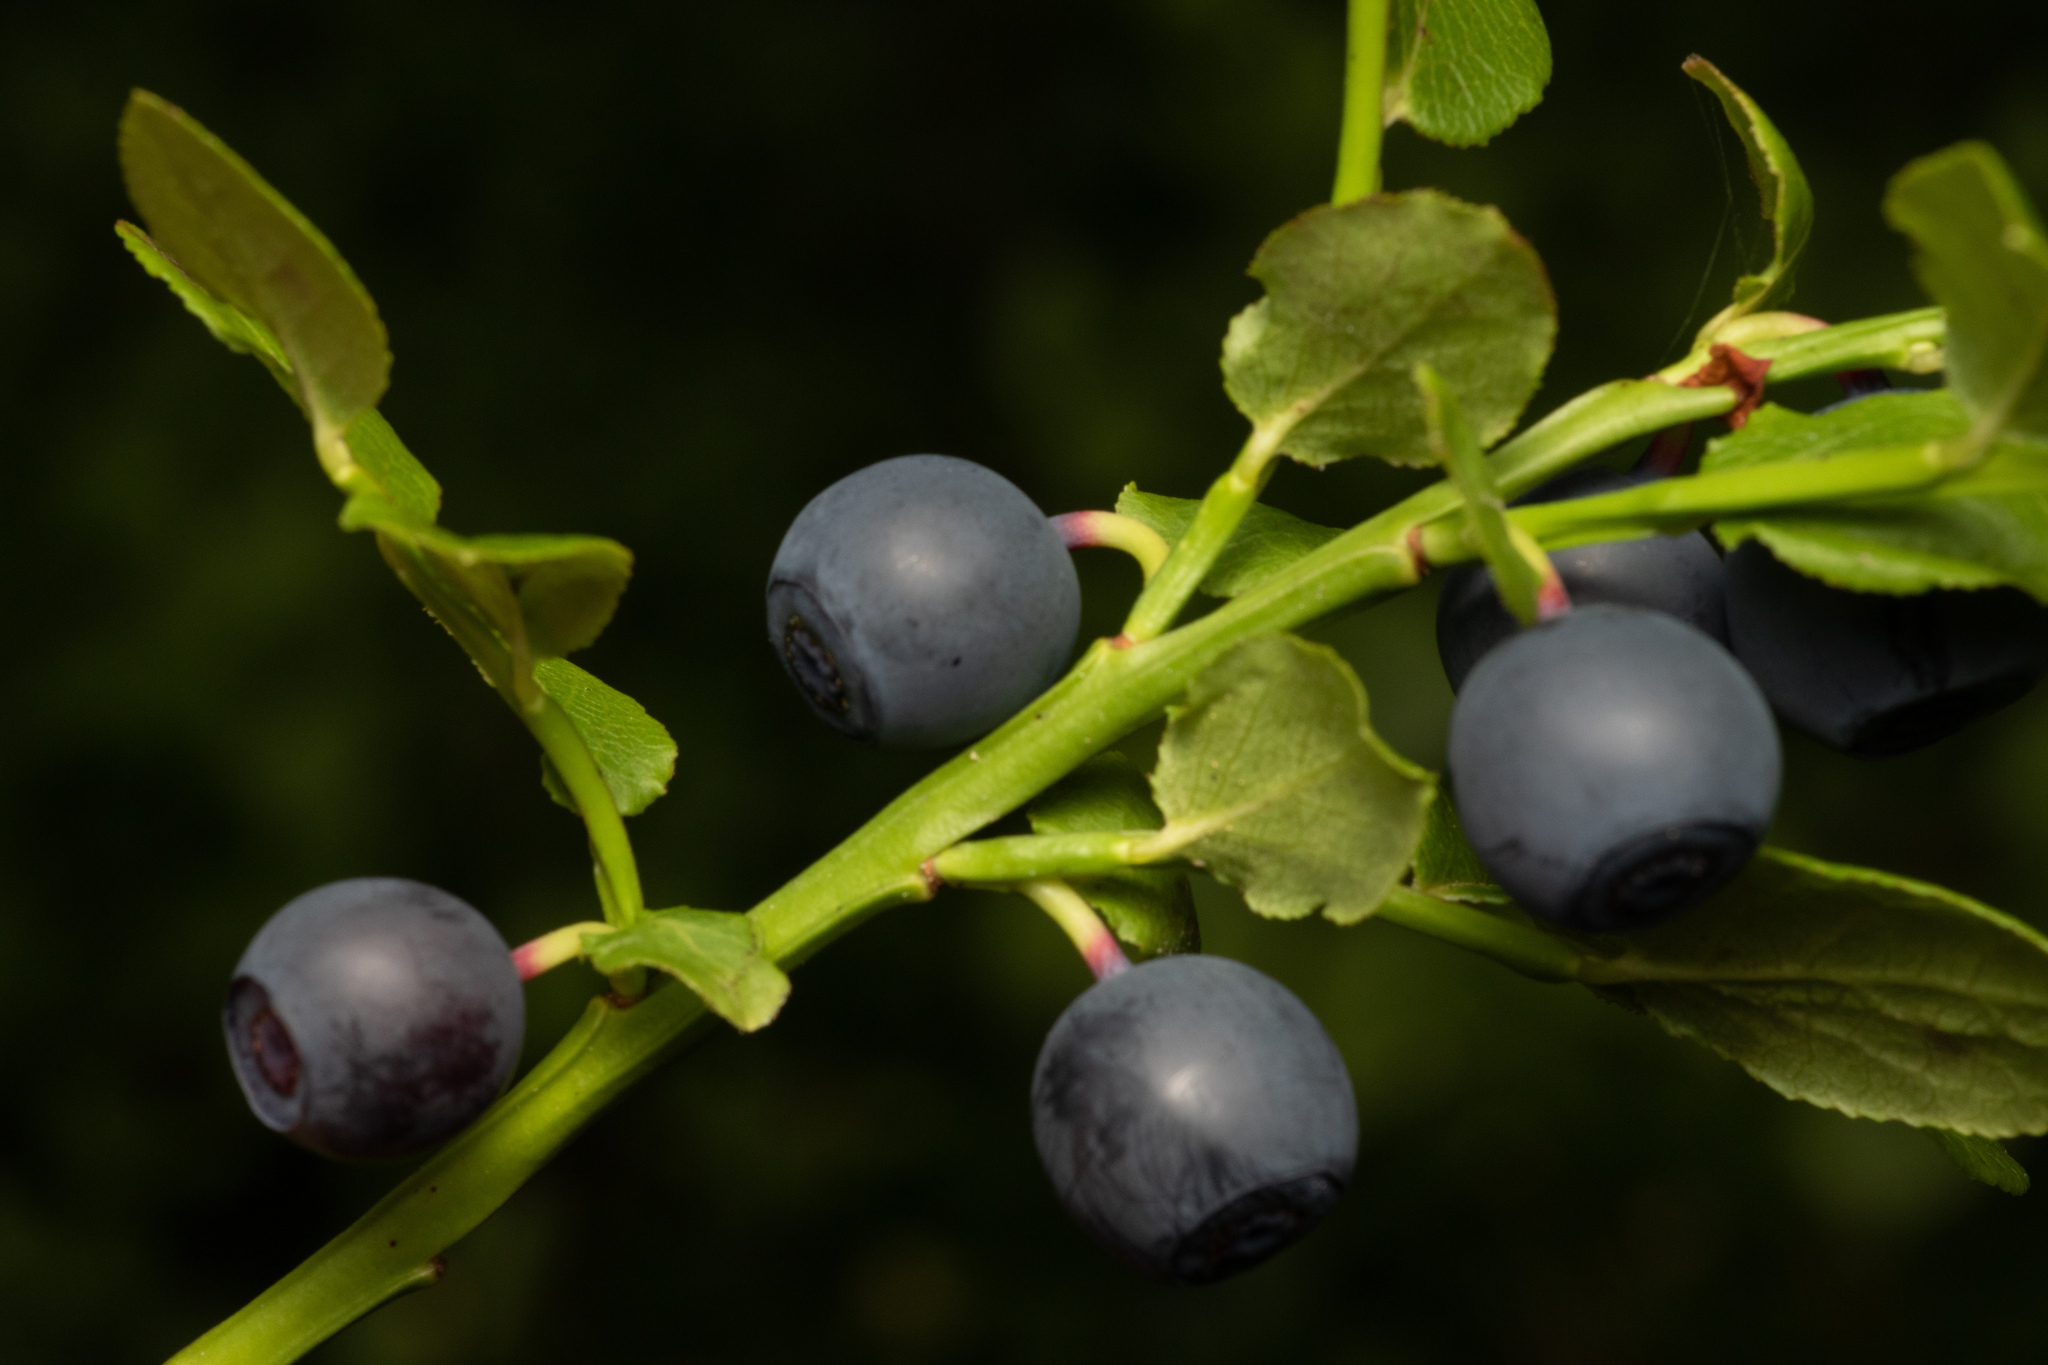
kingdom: Plantae
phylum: Tracheophyta
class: Magnoliopsida
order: Ericales
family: Ericaceae
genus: Vaccinium
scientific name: Vaccinium myrtillus
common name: Bilberry
